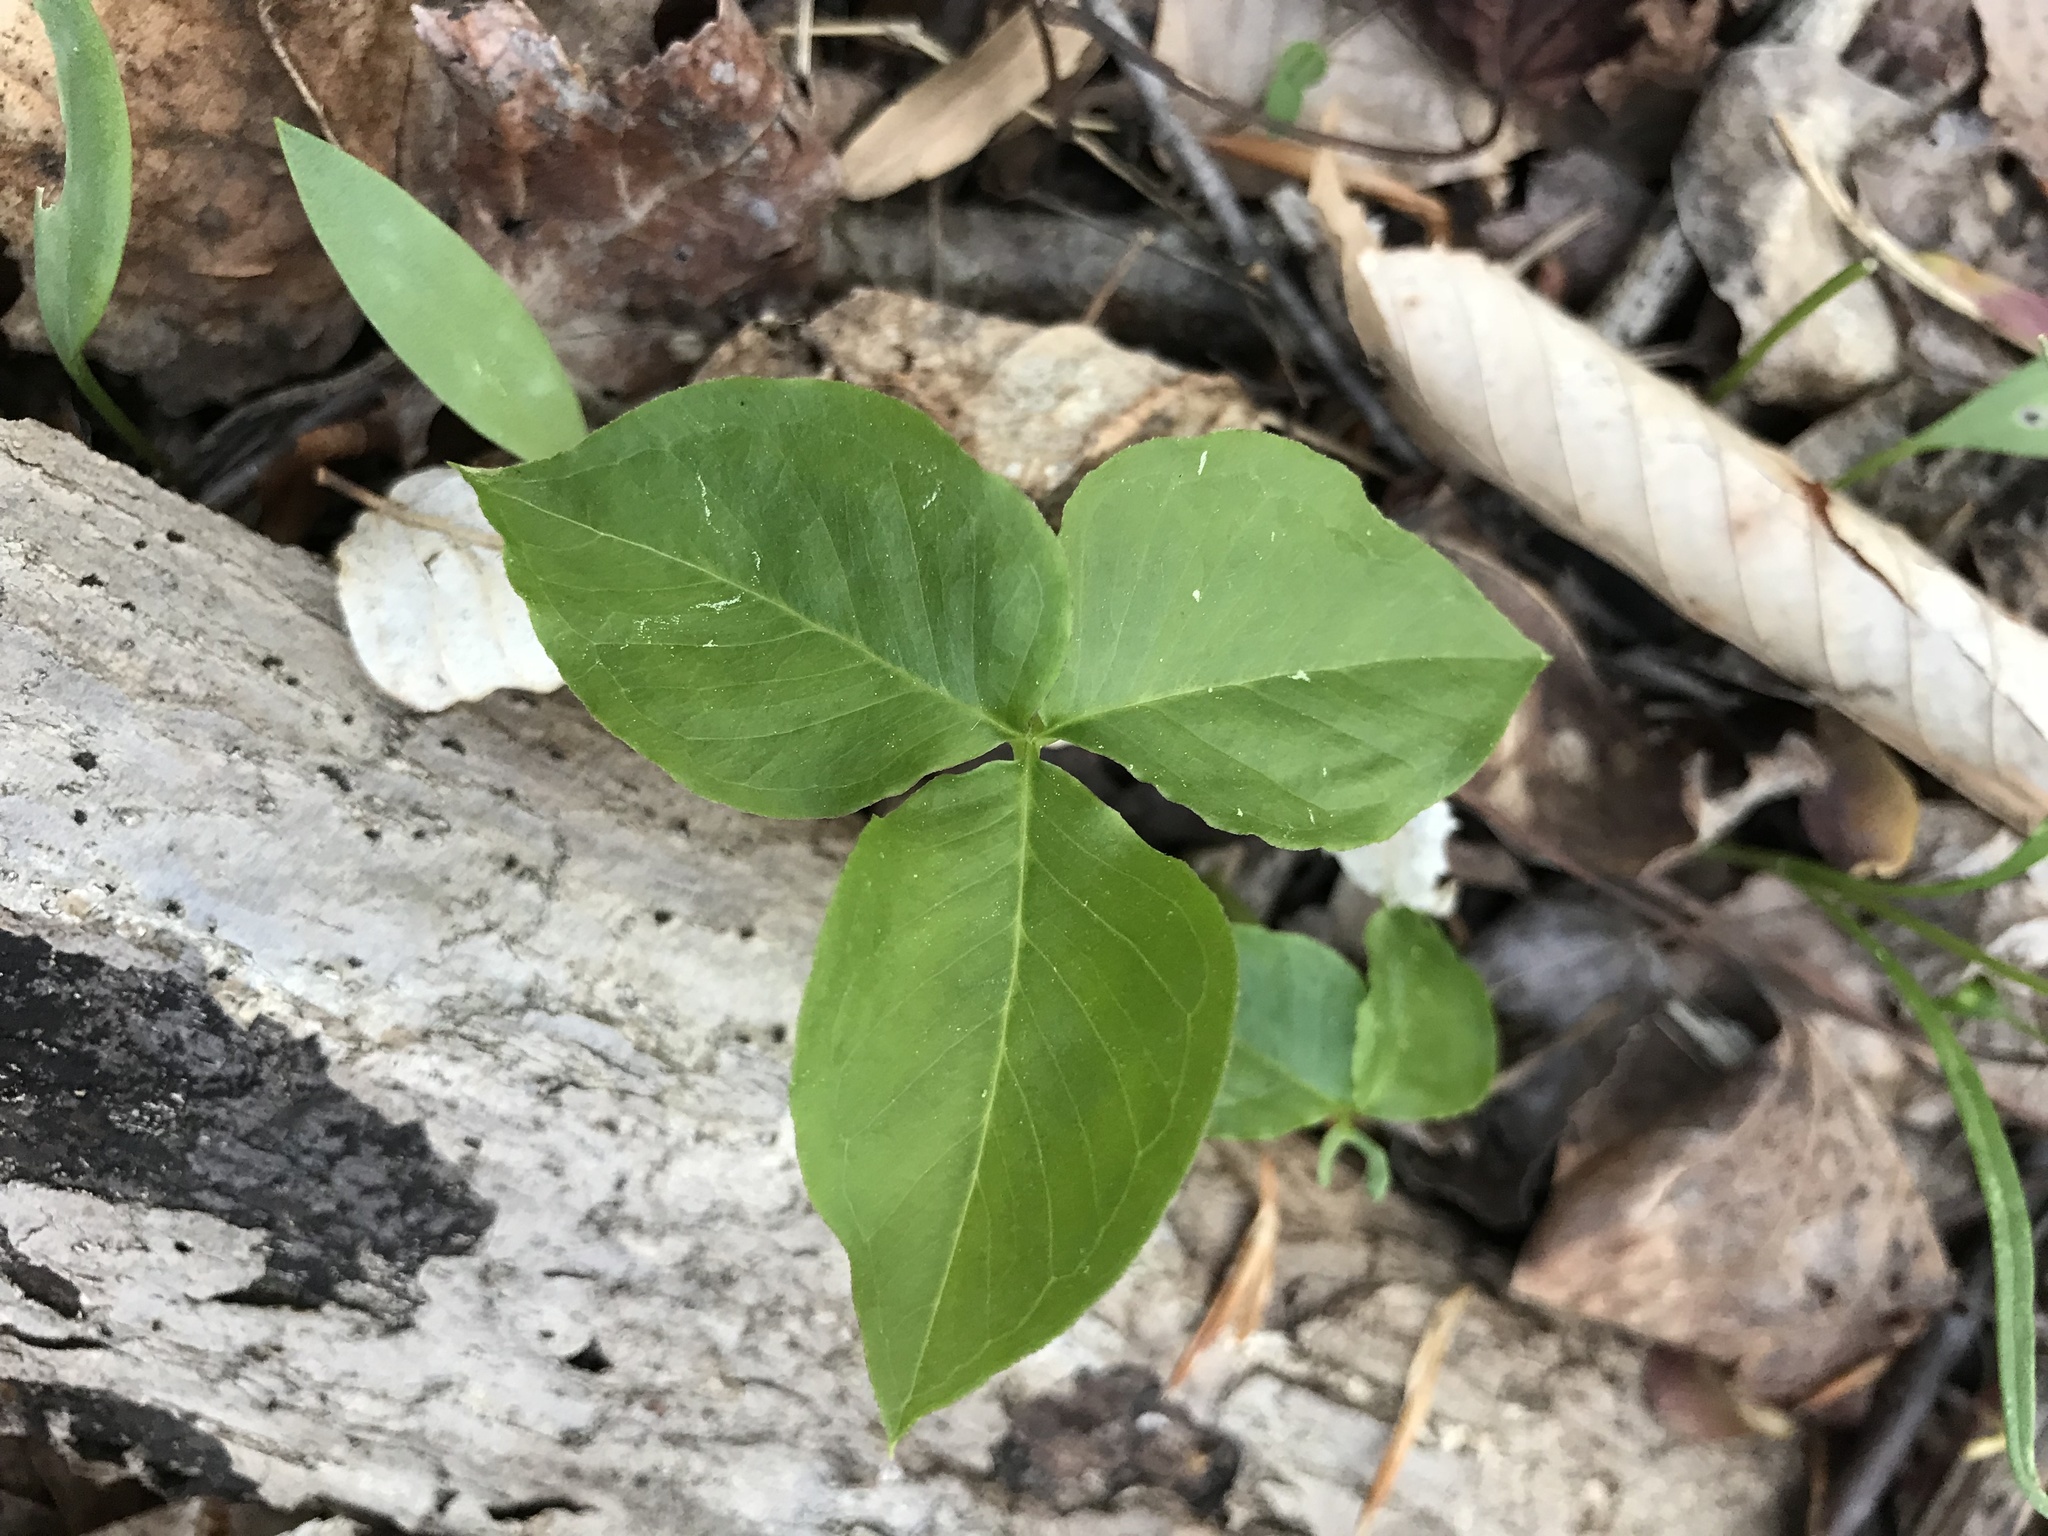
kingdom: Plantae
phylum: Tracheophyta
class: Liliopsida
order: Alismatales
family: Araceae
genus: Arisaema
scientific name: Arisaema triphyllum
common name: Jack-in-the-pulpit
